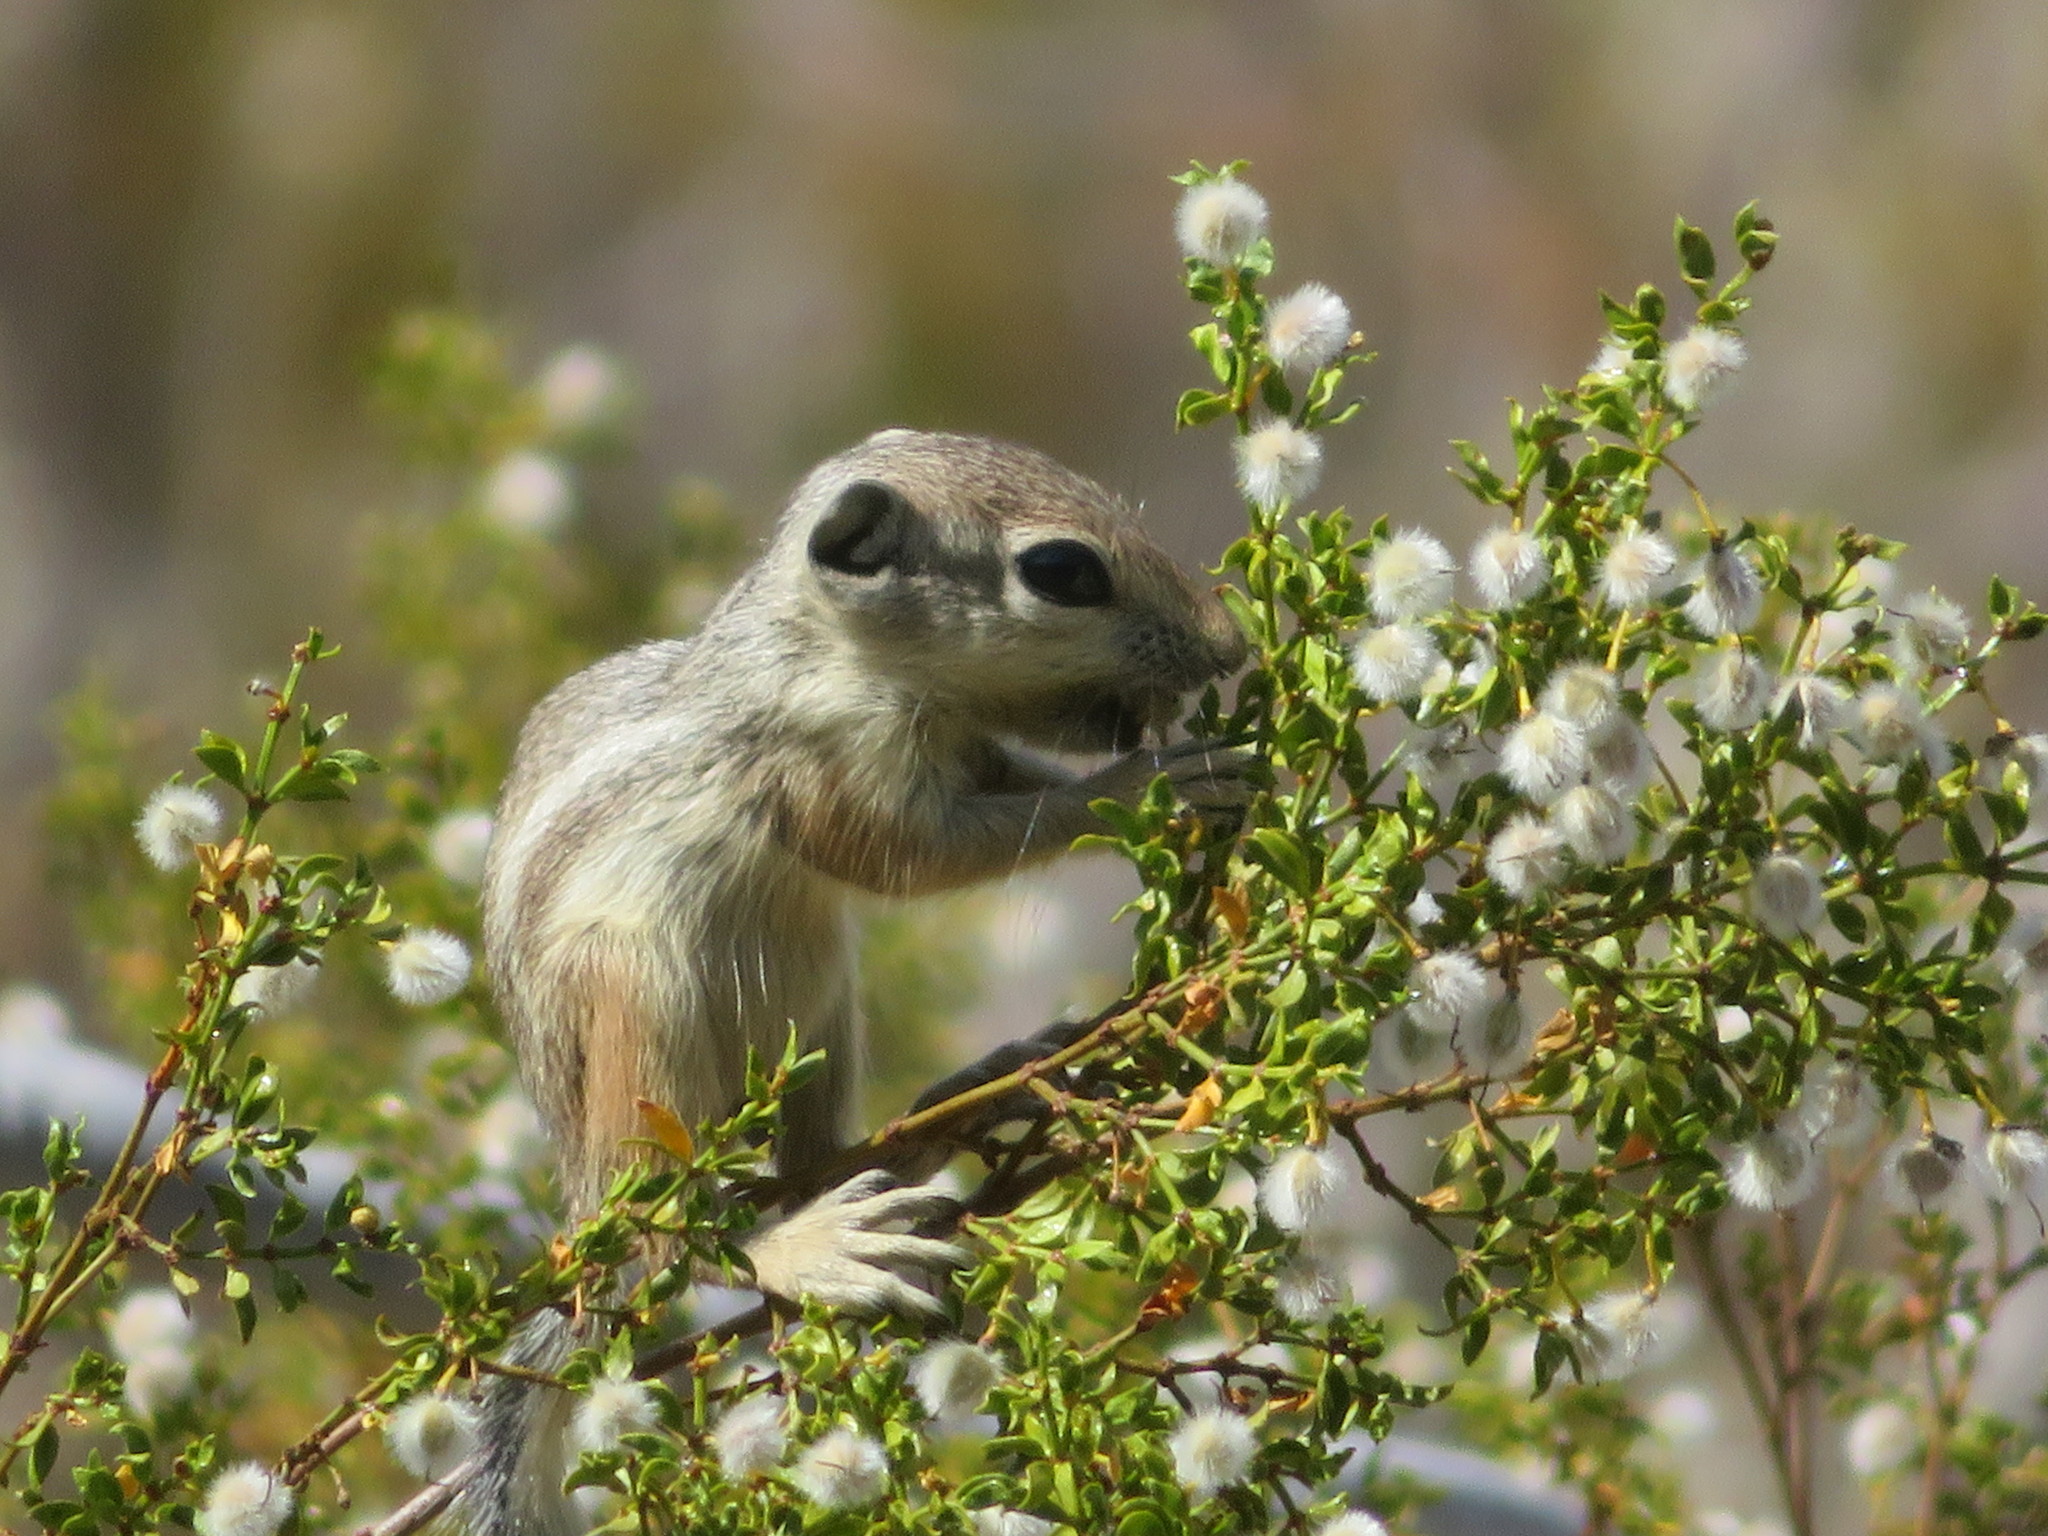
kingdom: Animalia
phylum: Chordata
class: Mammalia
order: Rodentia
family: Sciuridae
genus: Ammospermophilus
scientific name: Ammospermophilus leucurus
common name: White-tailed antelope squirrel
